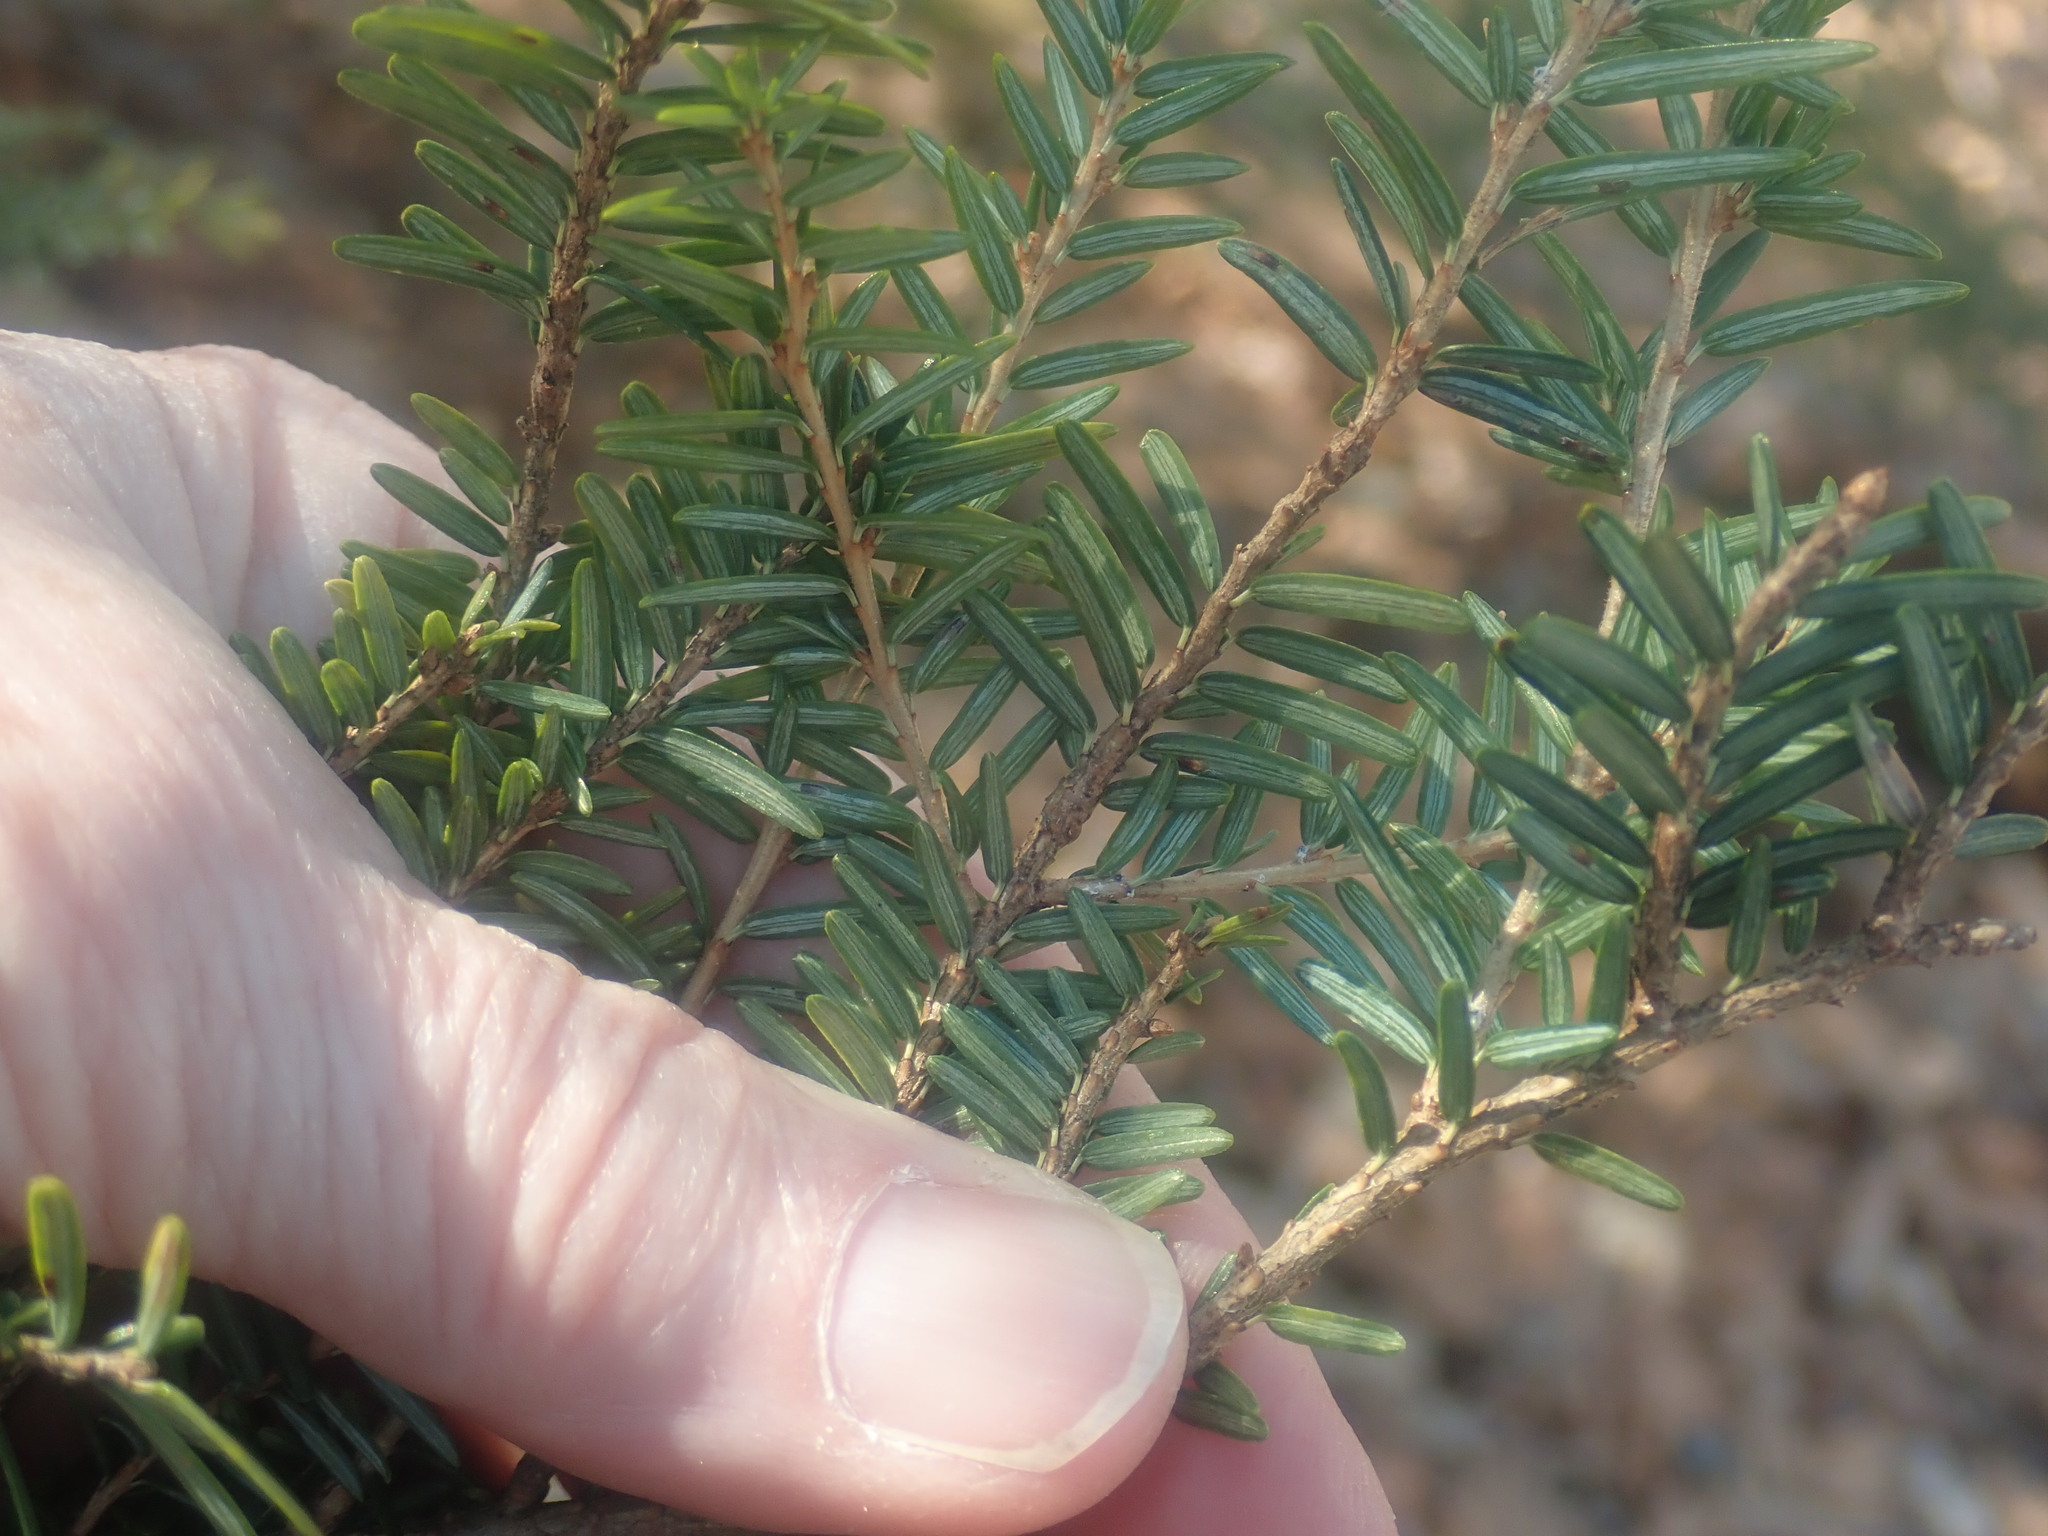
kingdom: Plantae
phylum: Tracheophyta
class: Pinopsida
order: Pinales
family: Pinaceae
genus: Tsuga
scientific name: Tsuga canadensis
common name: Eastern hemlock
